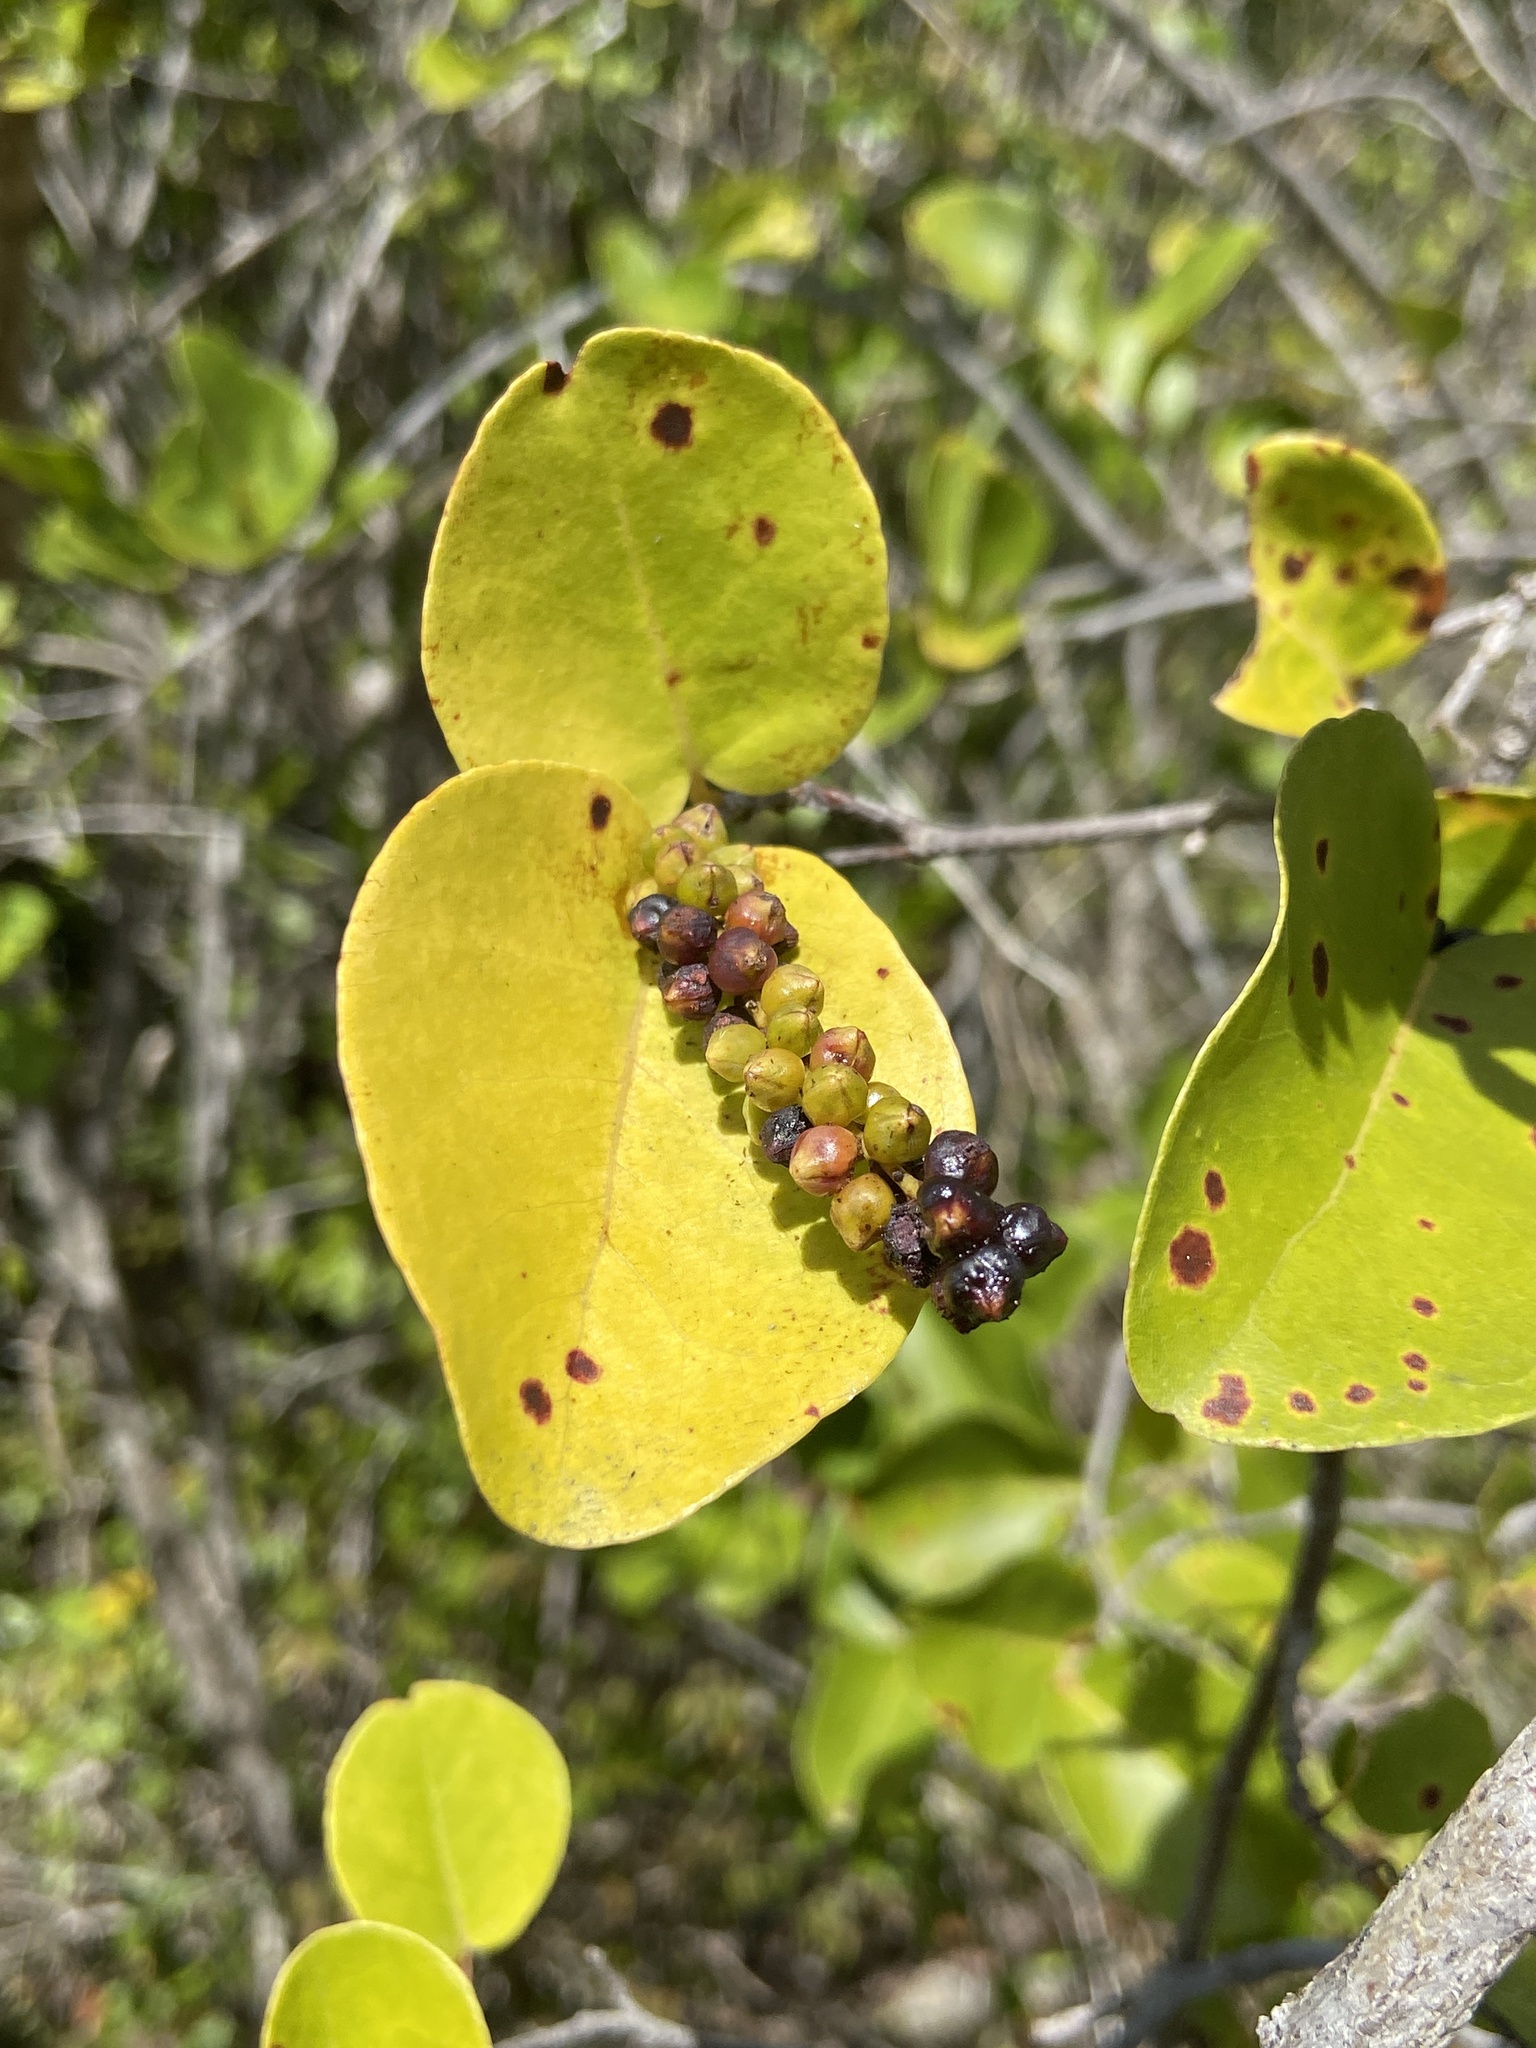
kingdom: Plantae
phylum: Tracheophyta
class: Magnoliopsida
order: Caryophyllales
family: Polygonaceae
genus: Coccoloba
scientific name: Coccoloba krugii
